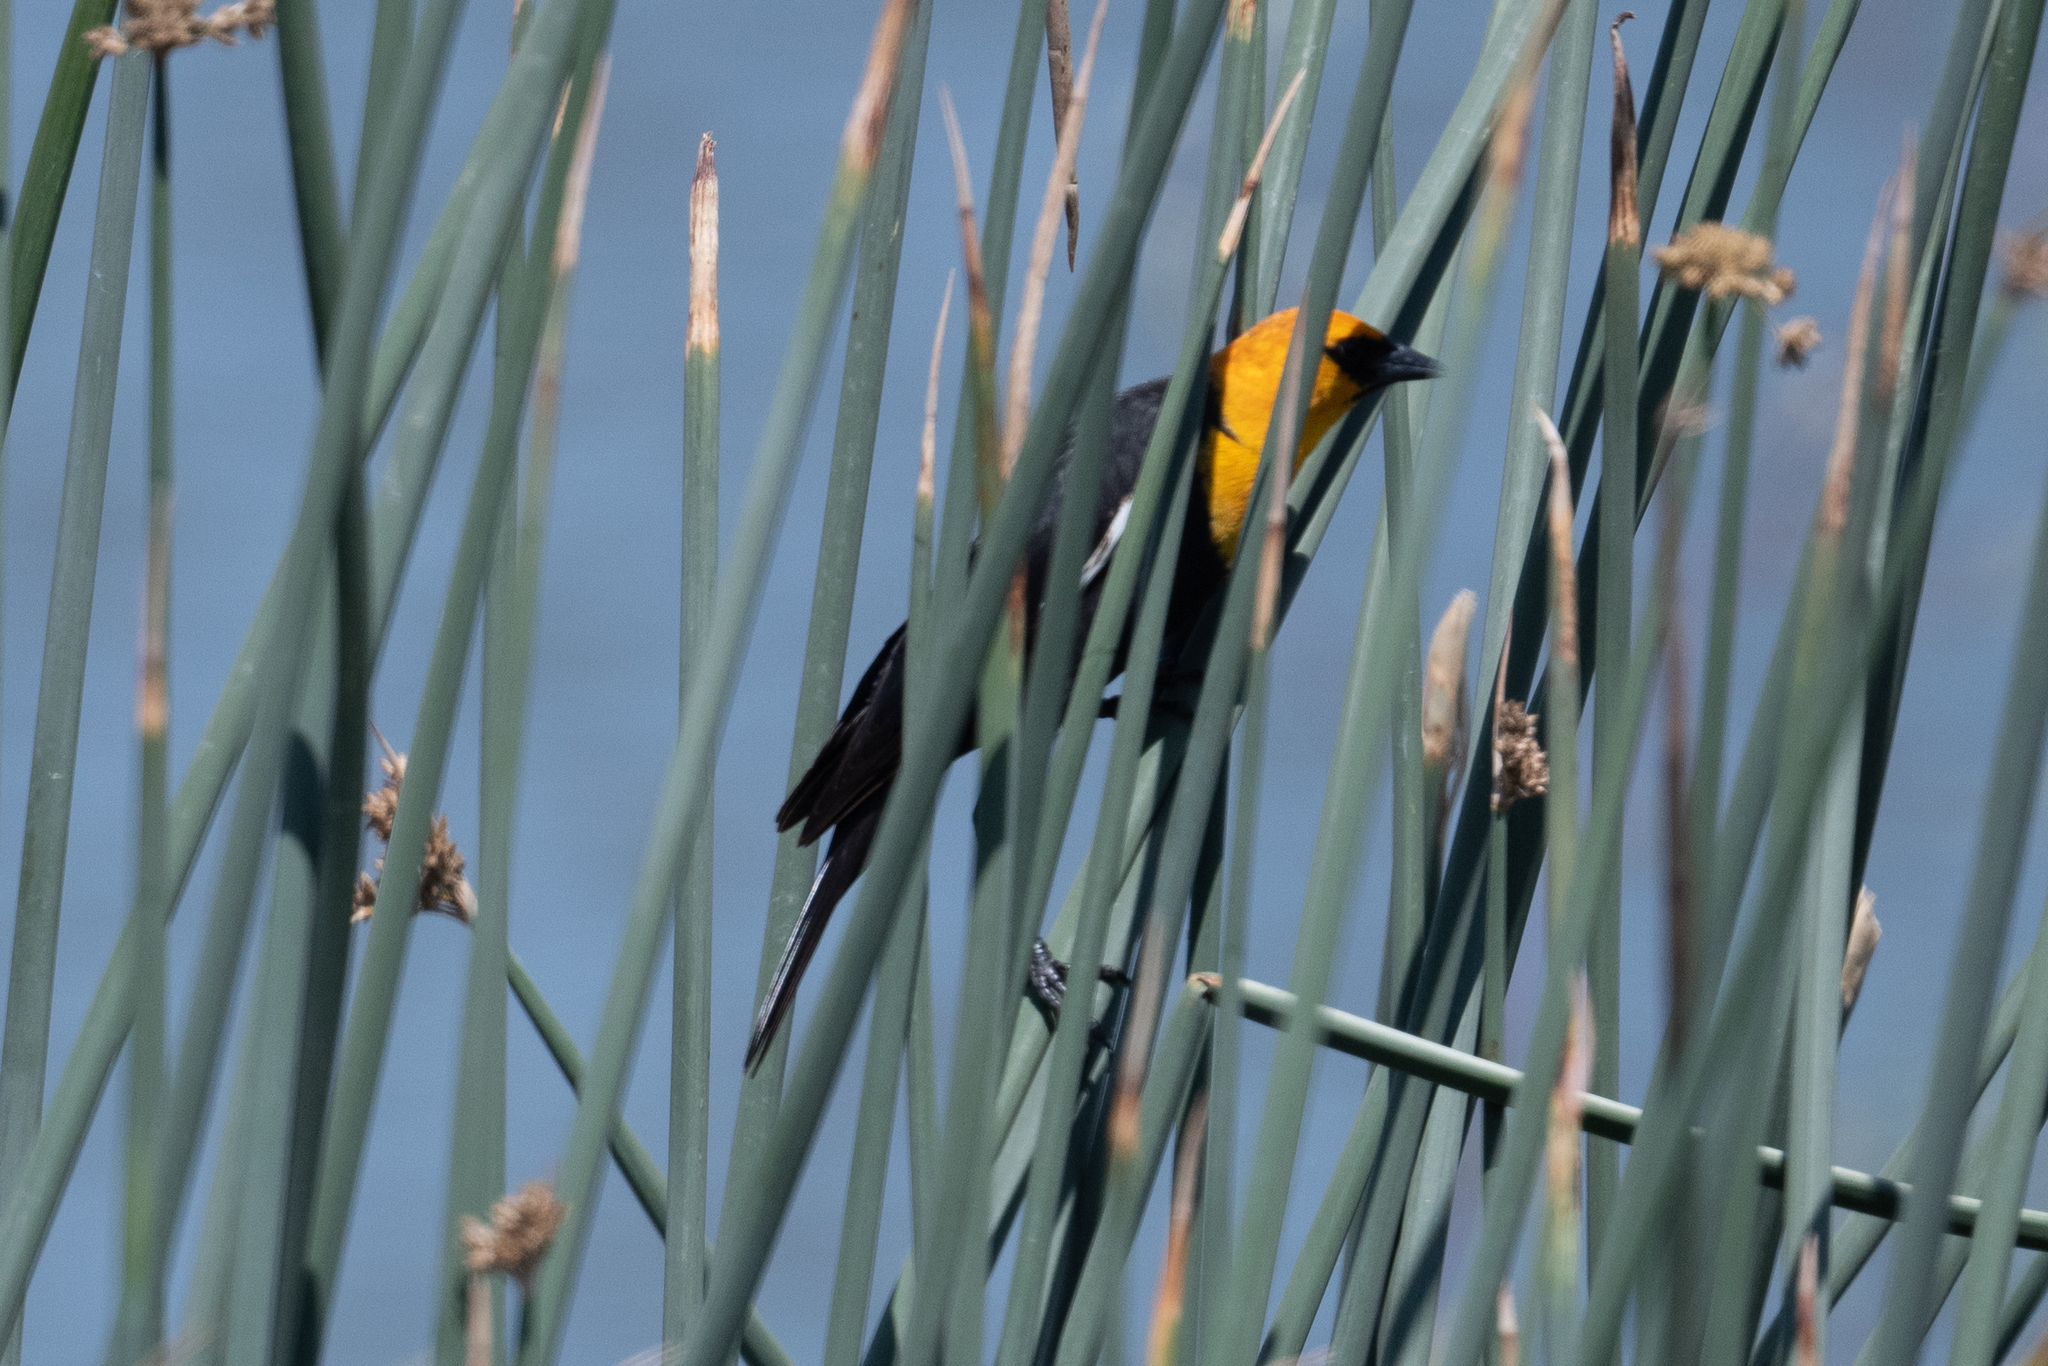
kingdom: Animalia
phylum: Chordata
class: Aves
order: Passeriformes
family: Icteridae
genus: Xanthocephalus
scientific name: Xanthocephalus xanthocephalus
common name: Yellow-headed blackbird
